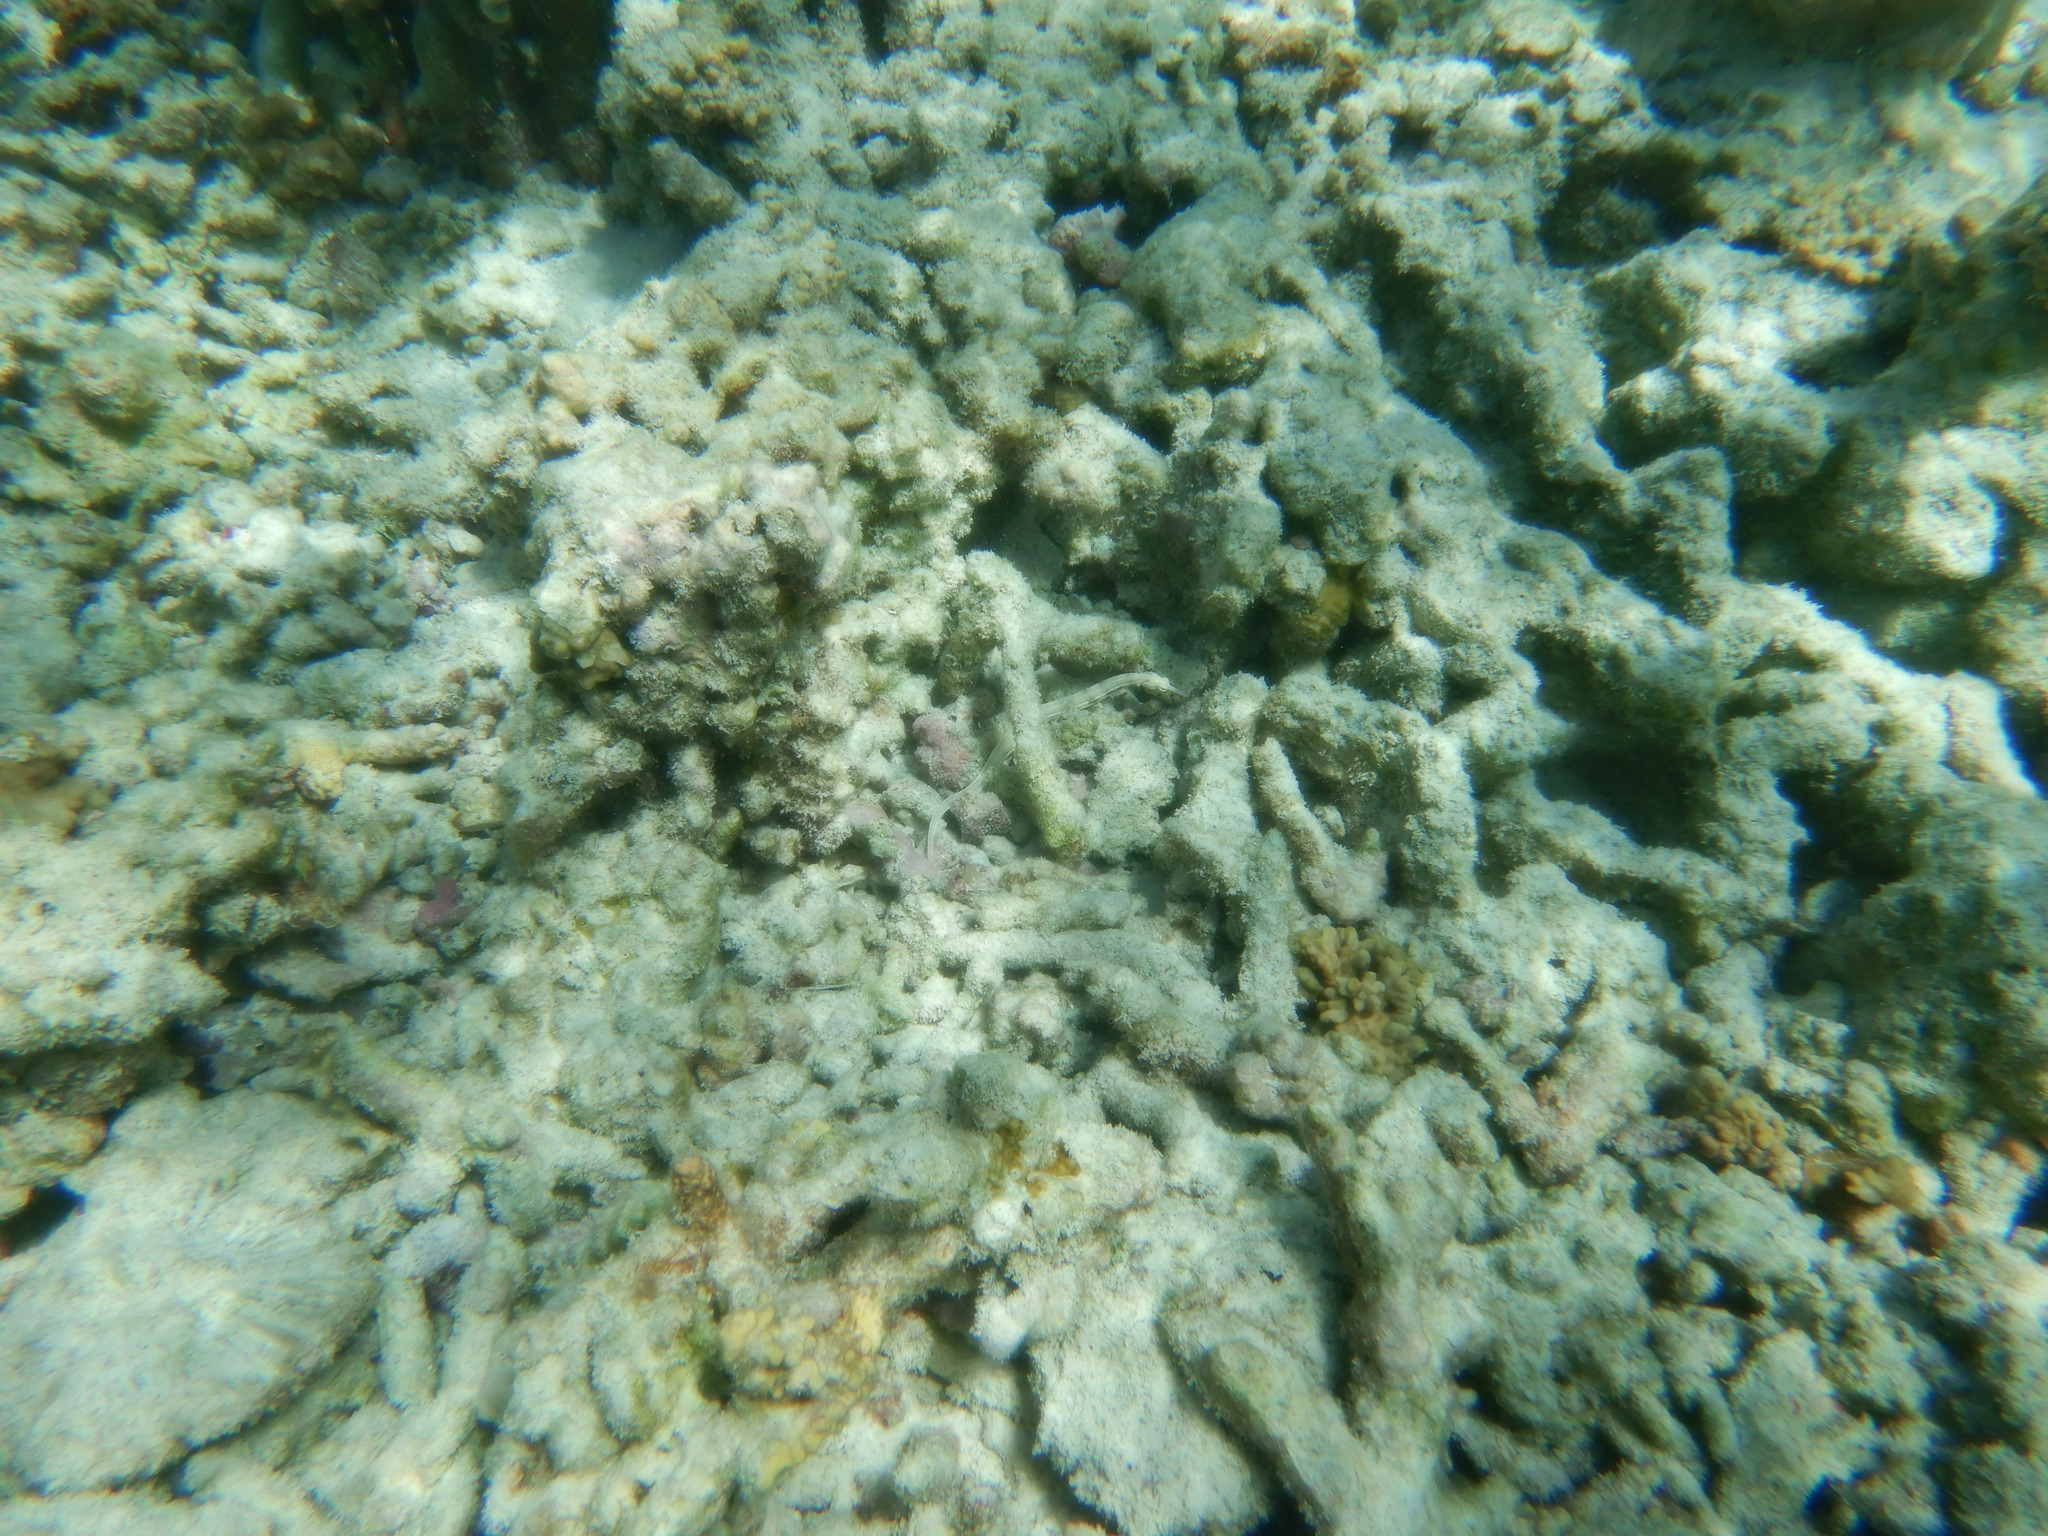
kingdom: Animalia
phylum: Chordata
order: Syngnathiformes
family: Syngnathidae
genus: Corythoichthys
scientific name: Corythoichthys haematopterus
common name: Bloodspot pipefish
